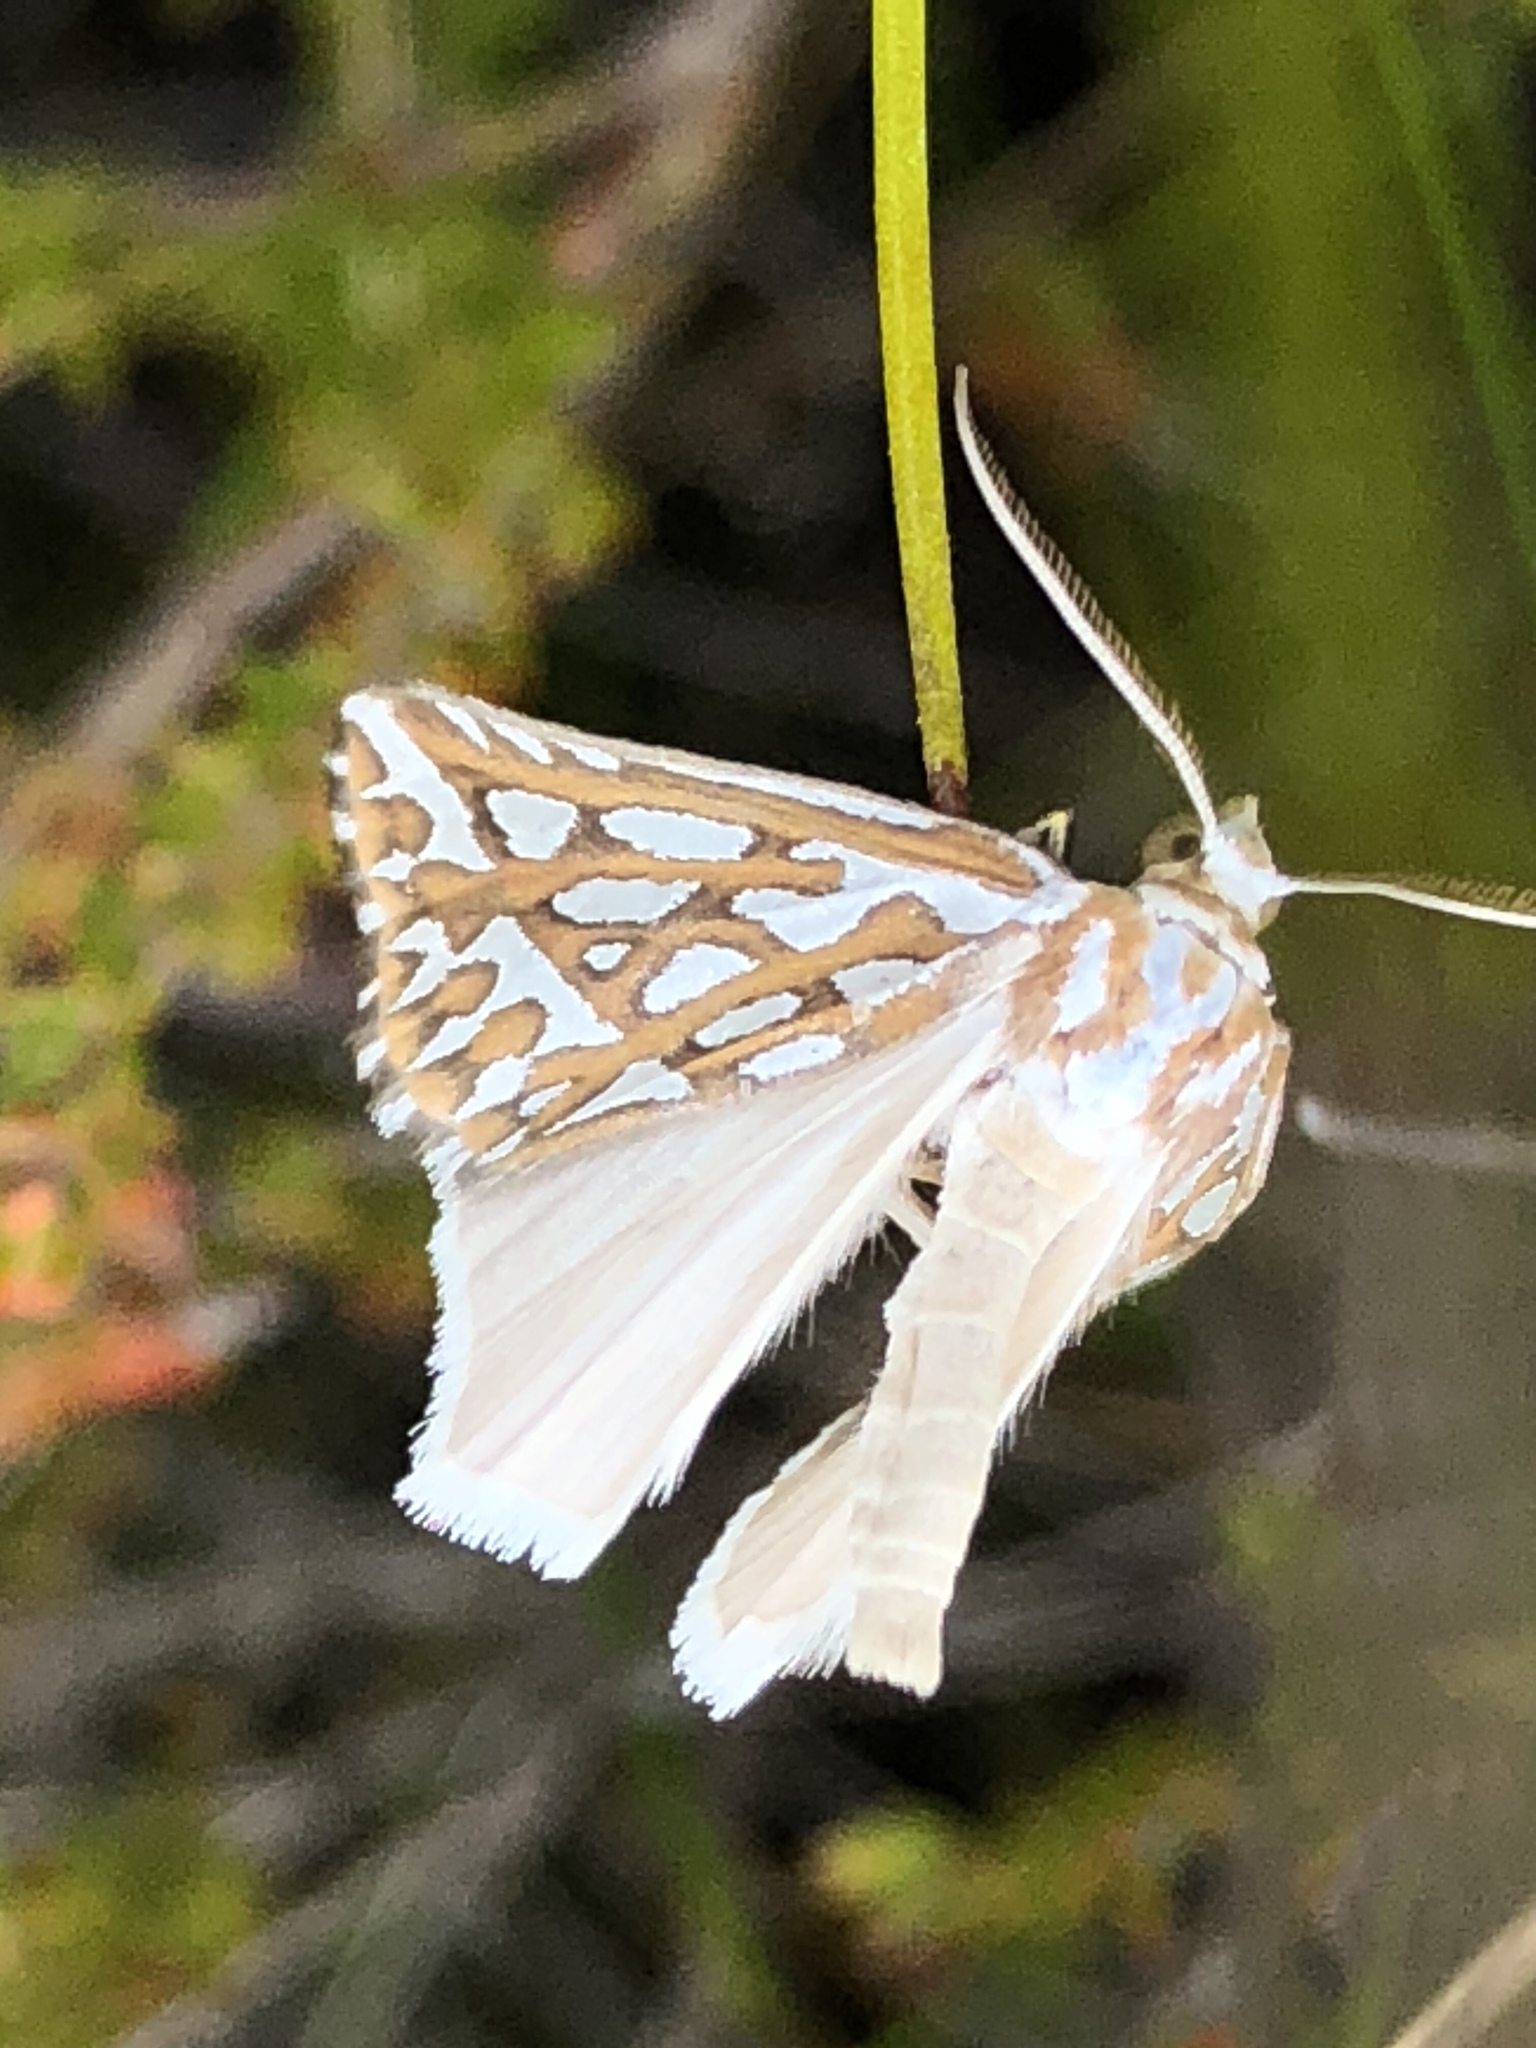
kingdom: Animalia
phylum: Arthropoda
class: Insecta
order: Lepidoptera
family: Geometridae
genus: Argyrophora
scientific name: Argyrophora trofonia
